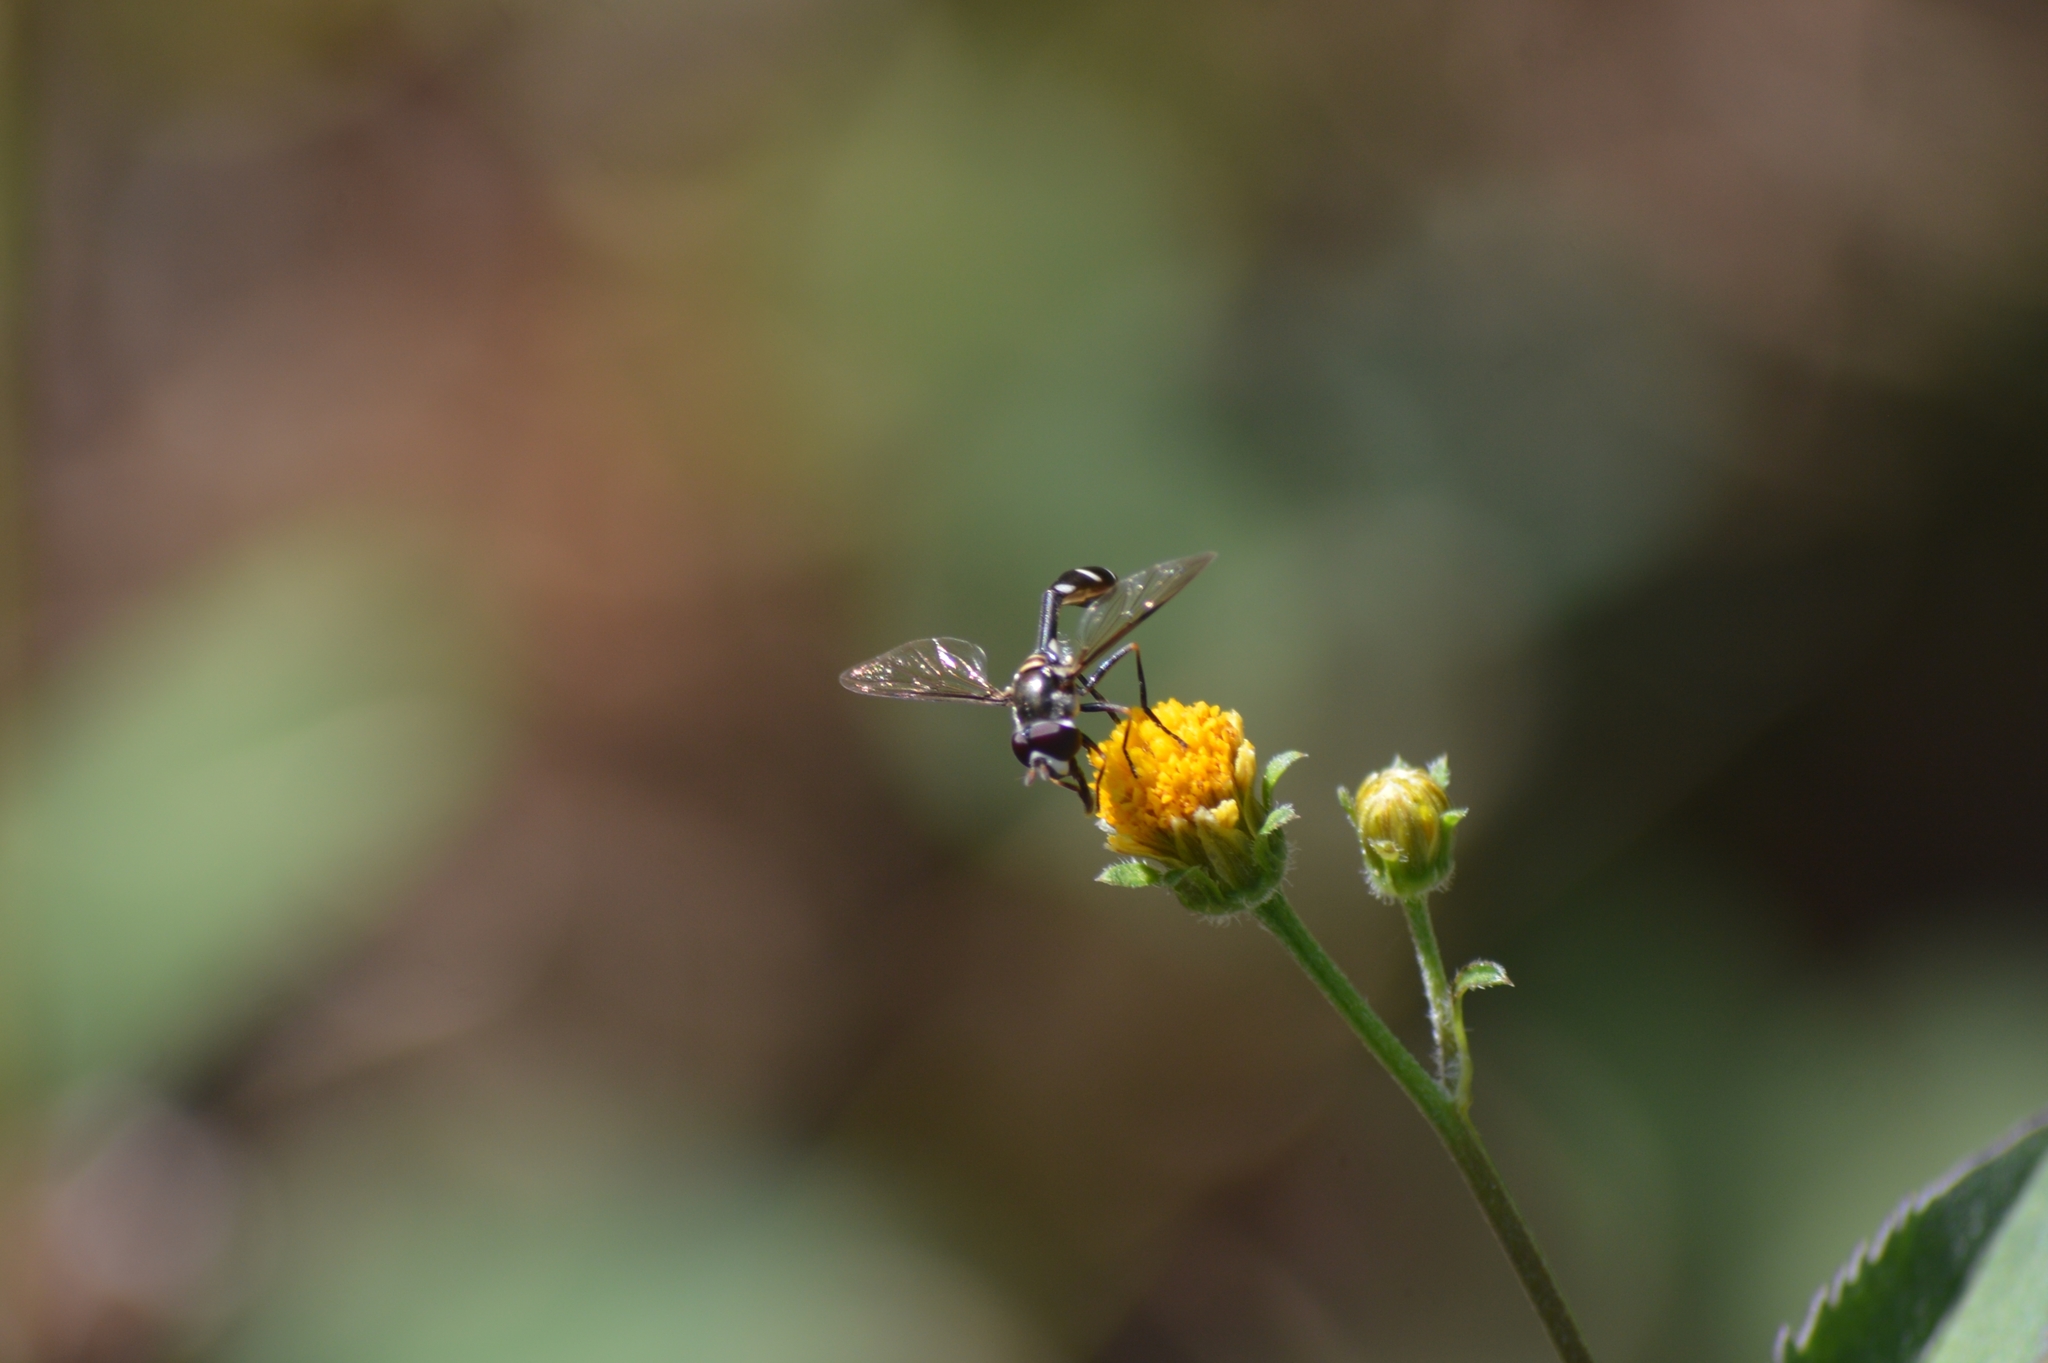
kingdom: Animalia
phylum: Arthropoda
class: Insecta
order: Diptera
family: Syrphidae
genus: Dioprosopa
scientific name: Dioprosopa clavatus
